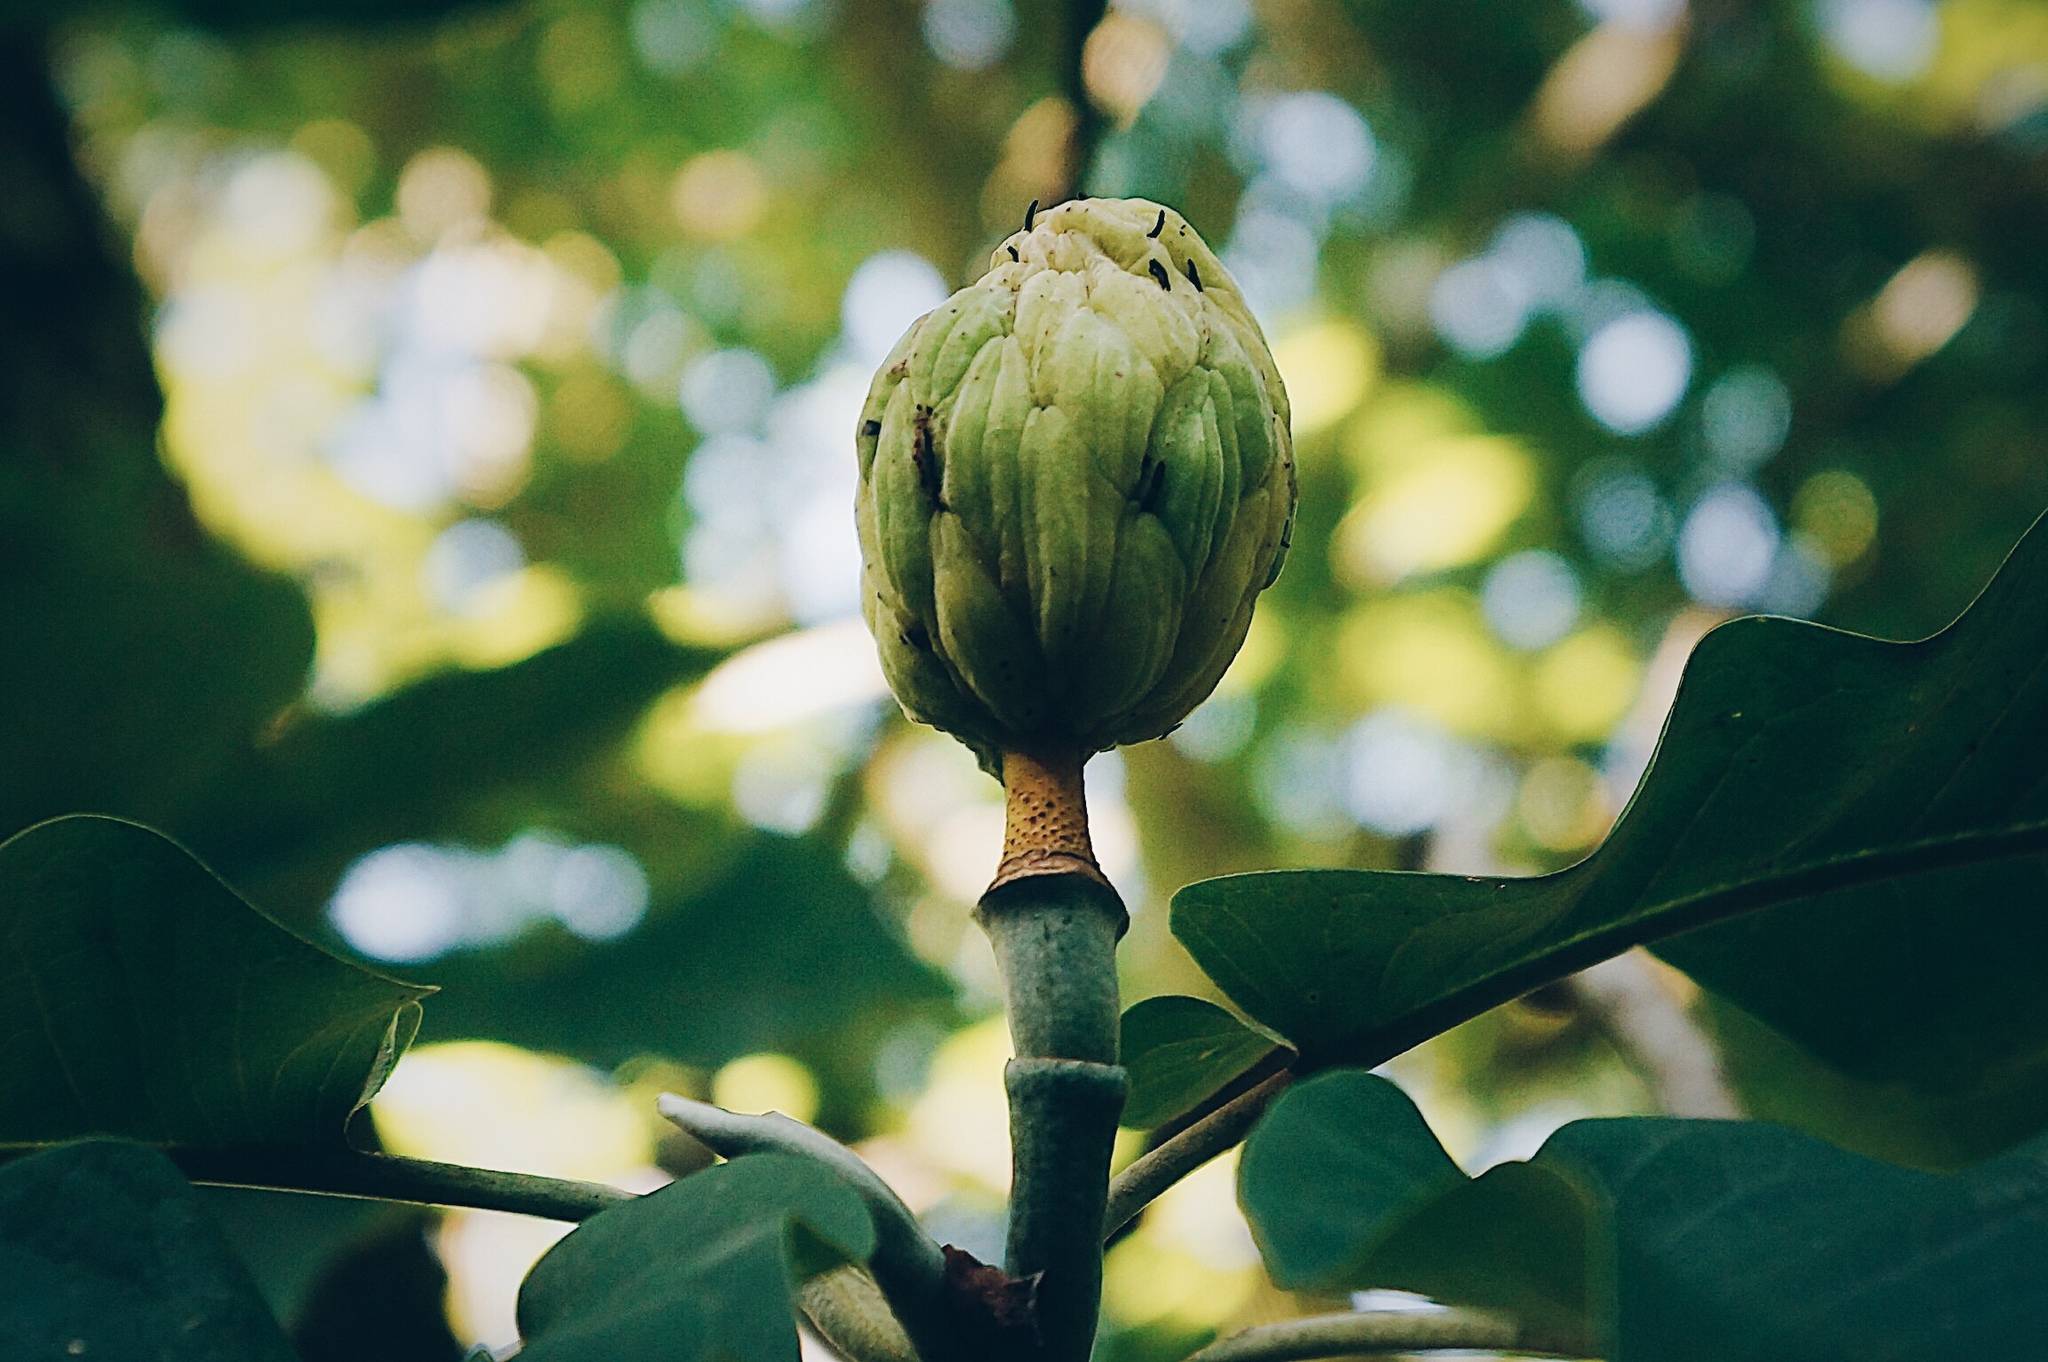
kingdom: Plantae
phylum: Tracheophyta
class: Magnoliopsida
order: Magnoliales
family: Magnoliaceae
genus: Magnolia
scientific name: Magnolia alejandrae
